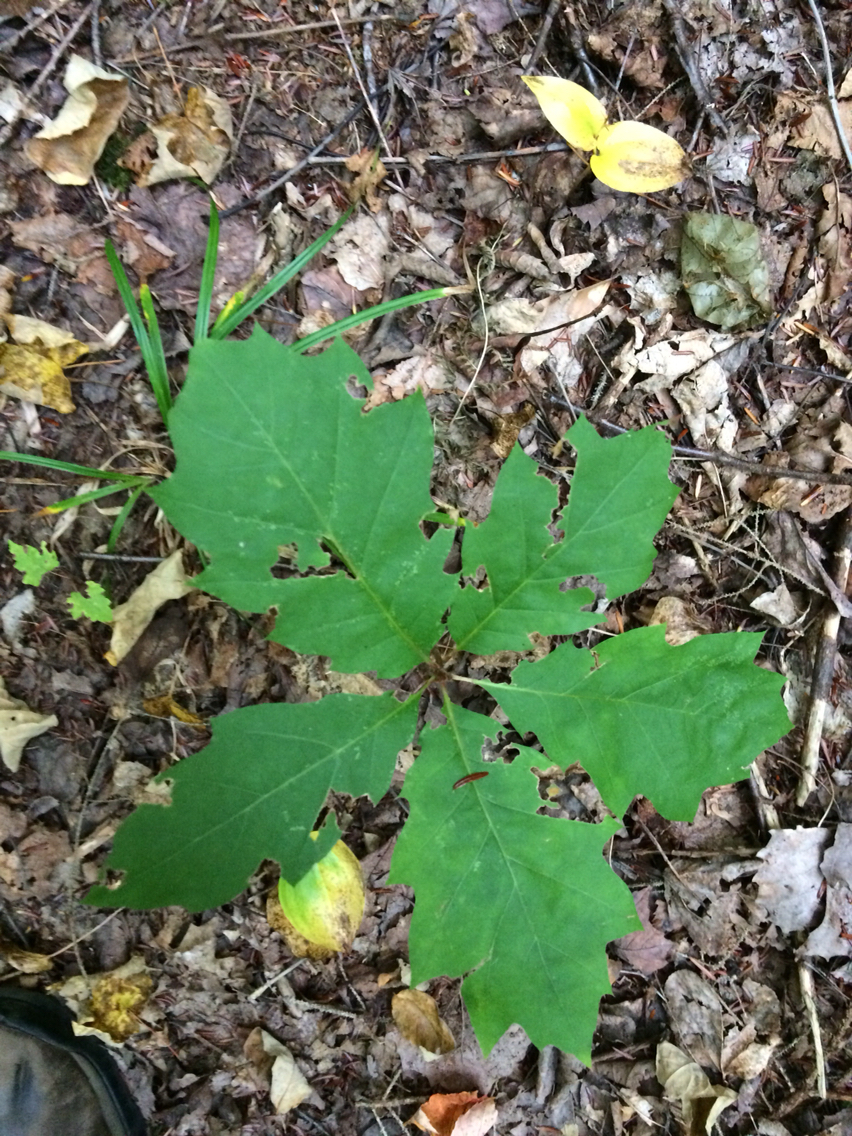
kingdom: Plantae
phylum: Tracheophyta
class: Magnoliopsida
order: Fagales
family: Fagaceae
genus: Quercus
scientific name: Quercus rubra
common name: Red oak
